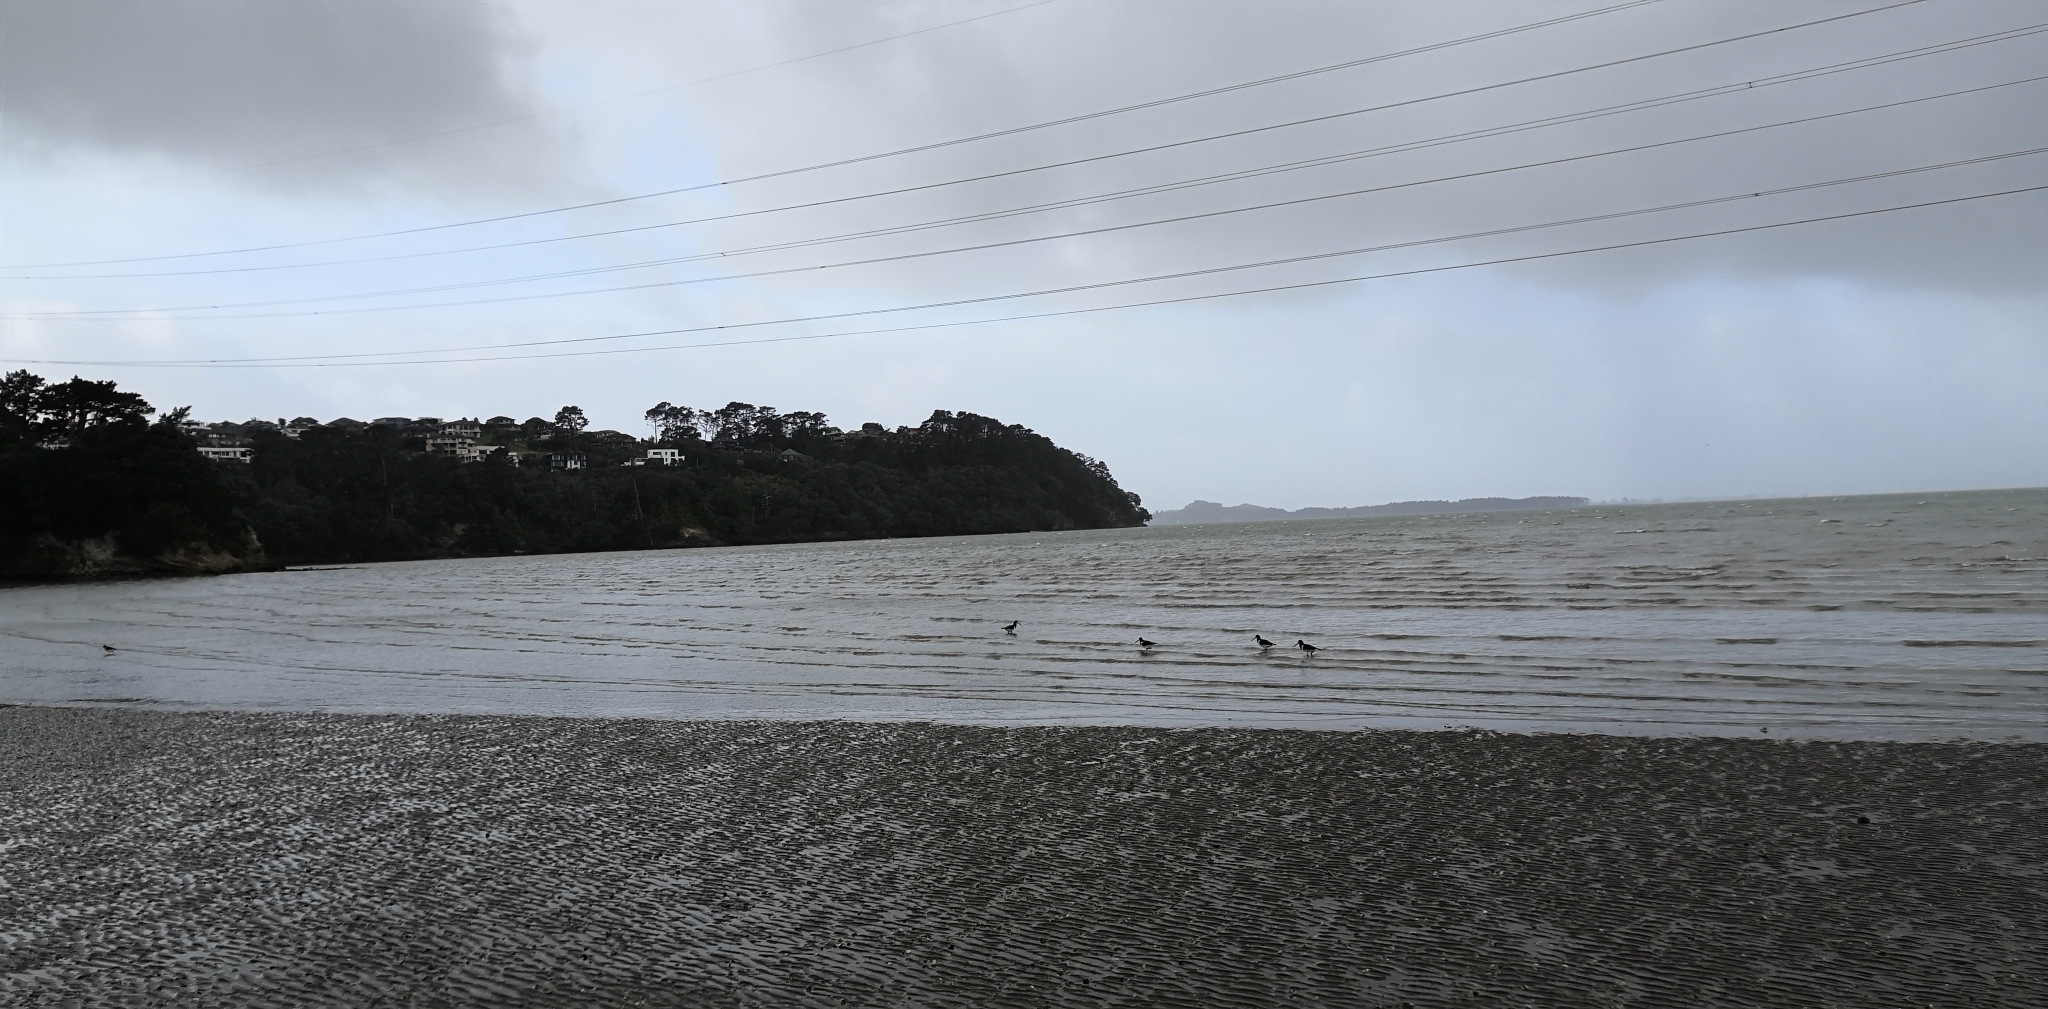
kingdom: Animalia
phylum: Chordata
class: Aves
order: Charadriiformes
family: Haematopodidae
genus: Haematopus
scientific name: Haematopus finschi
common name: South island oystercatcher
